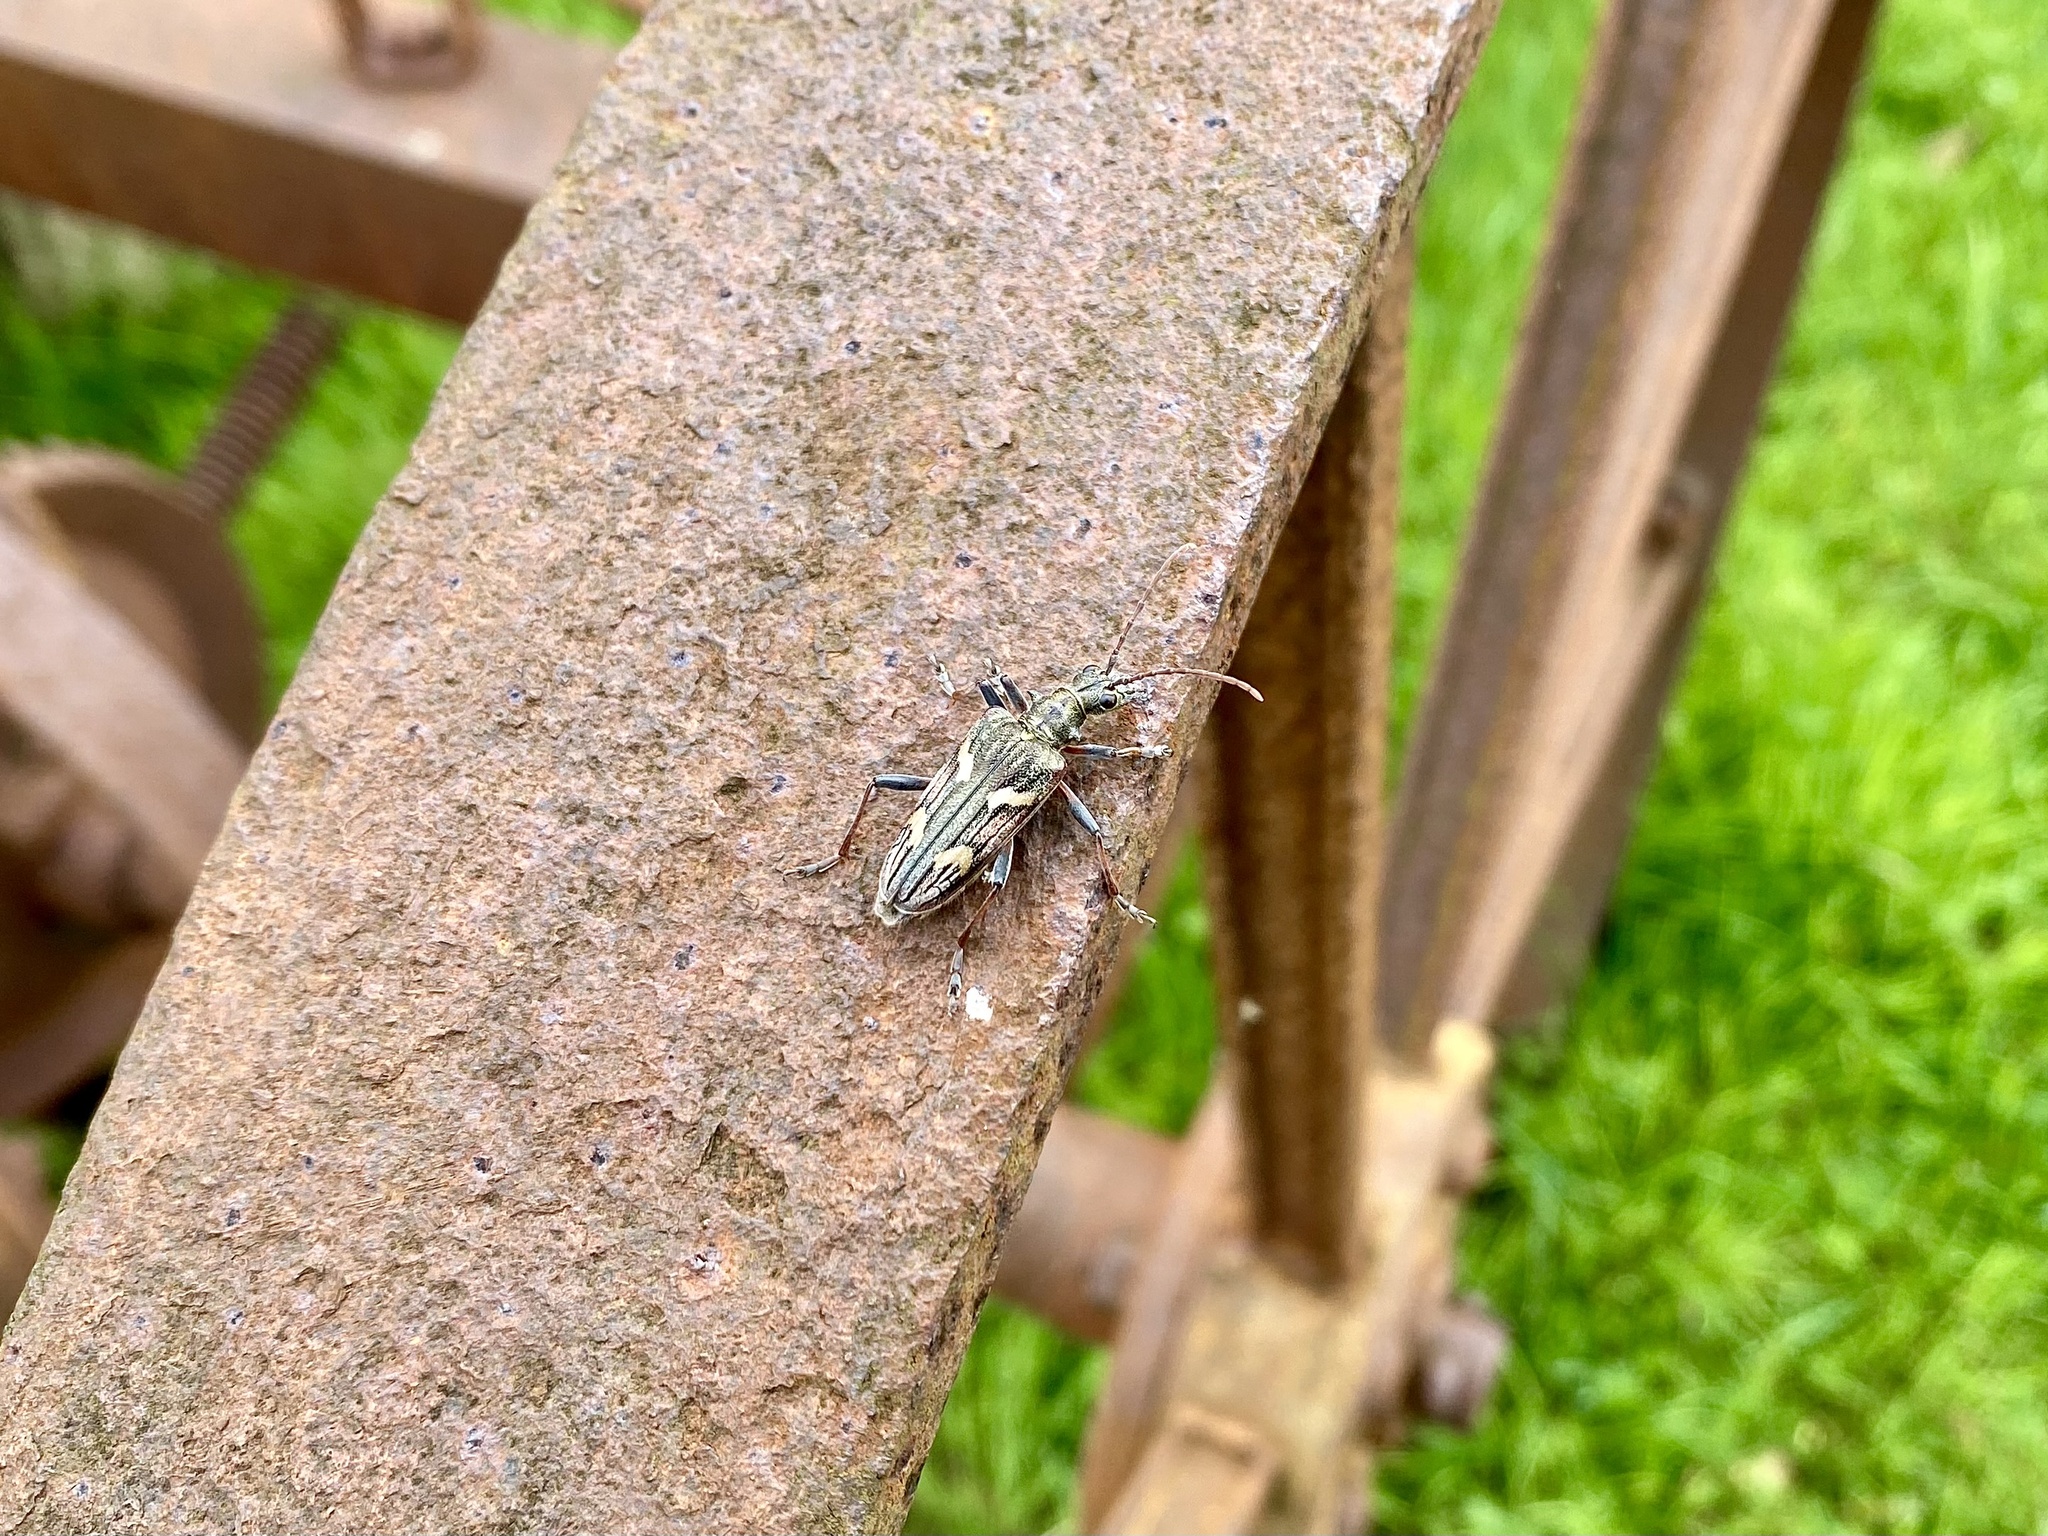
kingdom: Animalia
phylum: Arthropoda
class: Insecta
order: Coleoptera
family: Cerambycidae
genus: Rhagium
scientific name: Rhagium bifasciatum
